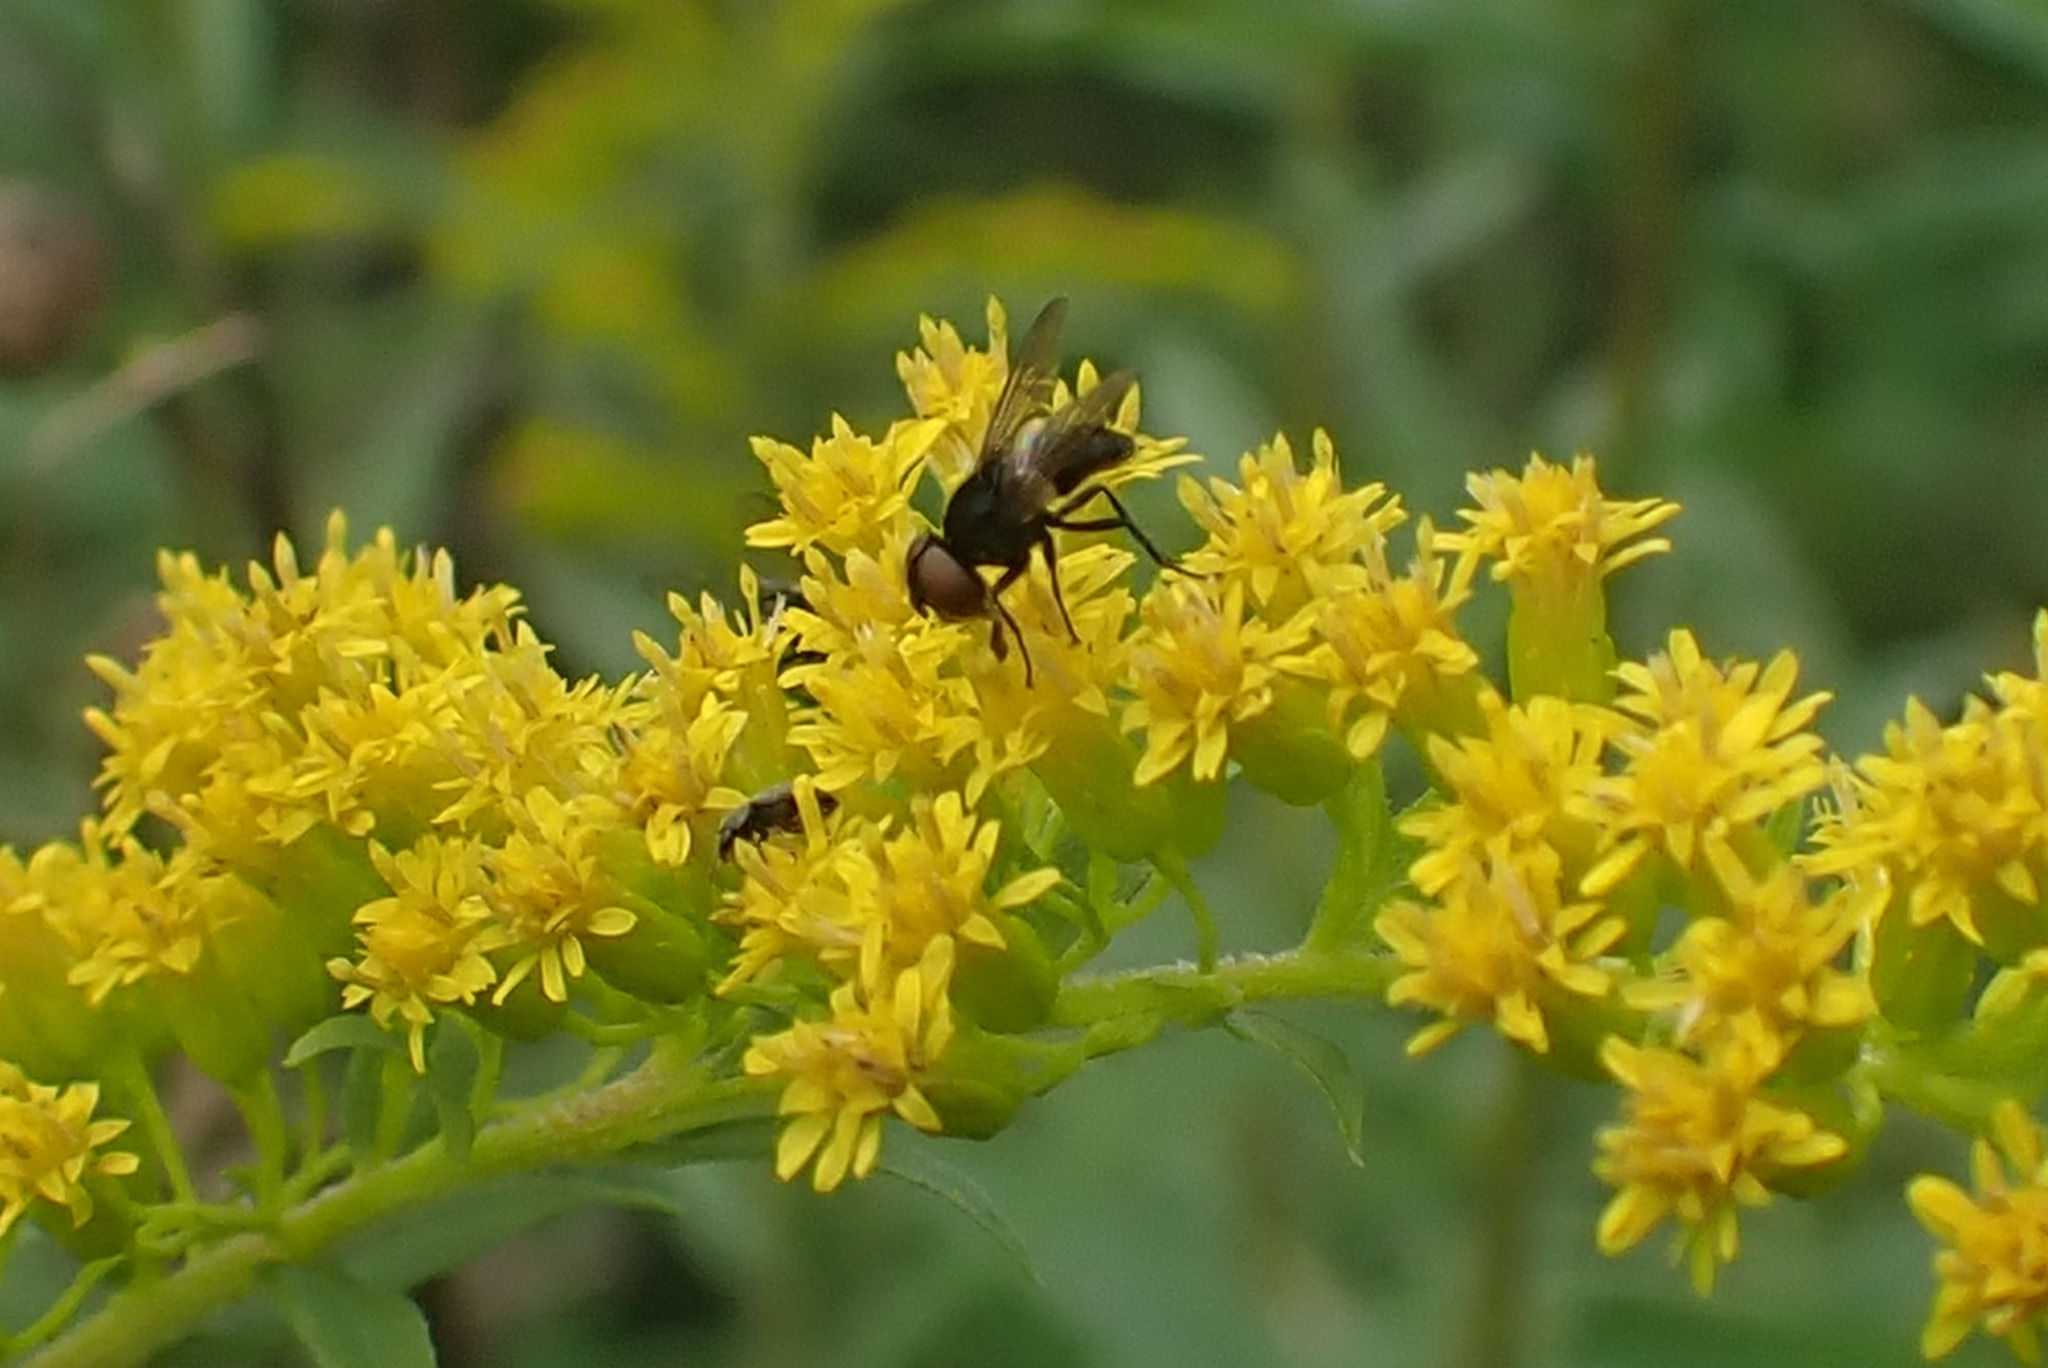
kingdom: Animalia
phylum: Arthropoda
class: Insecta
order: Diptera
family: Tachinidae
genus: Phasia
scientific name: Phasia barbifrons
